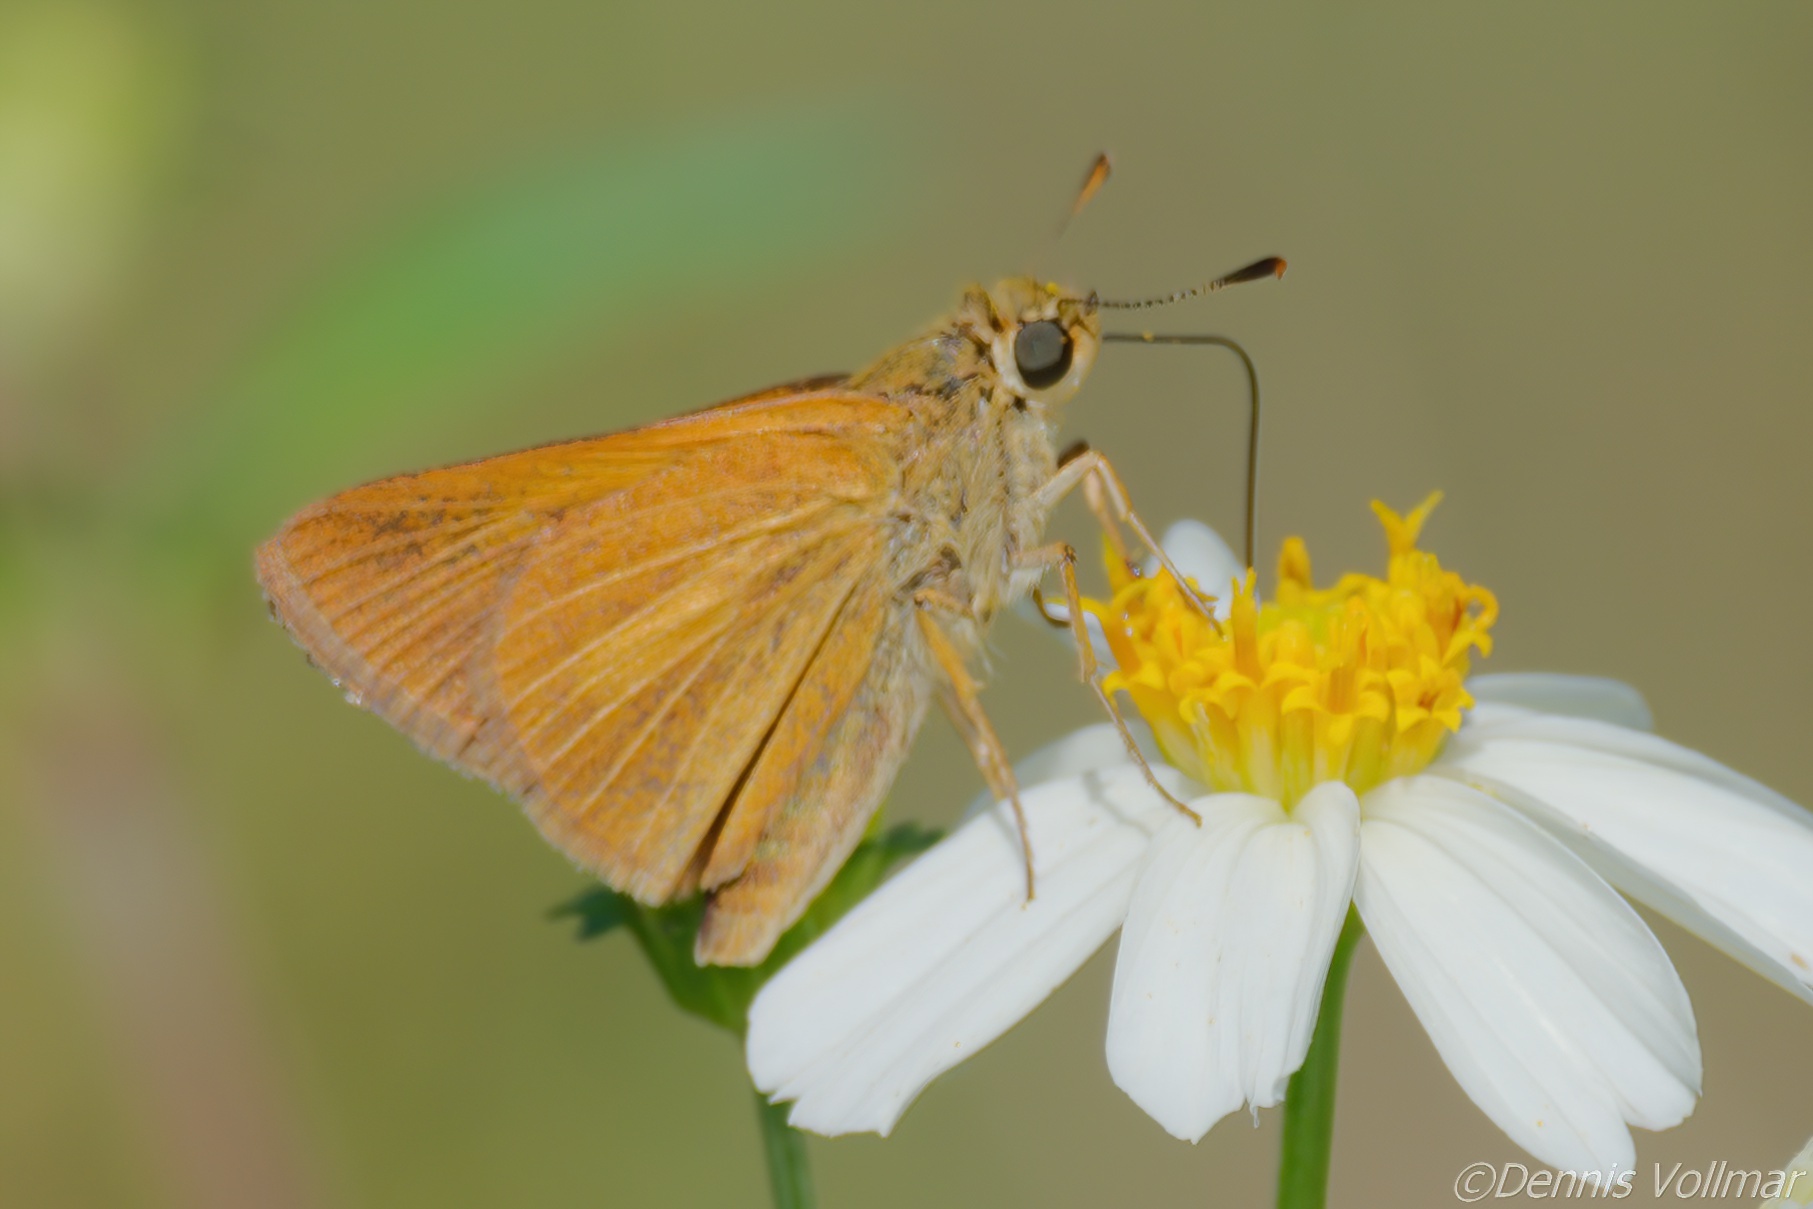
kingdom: Animalia
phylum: Arthropoda
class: Insecta
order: Lepidoptera
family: Hesperiidae
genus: Euphyes
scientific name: Euphyes dion
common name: Dion skipper
